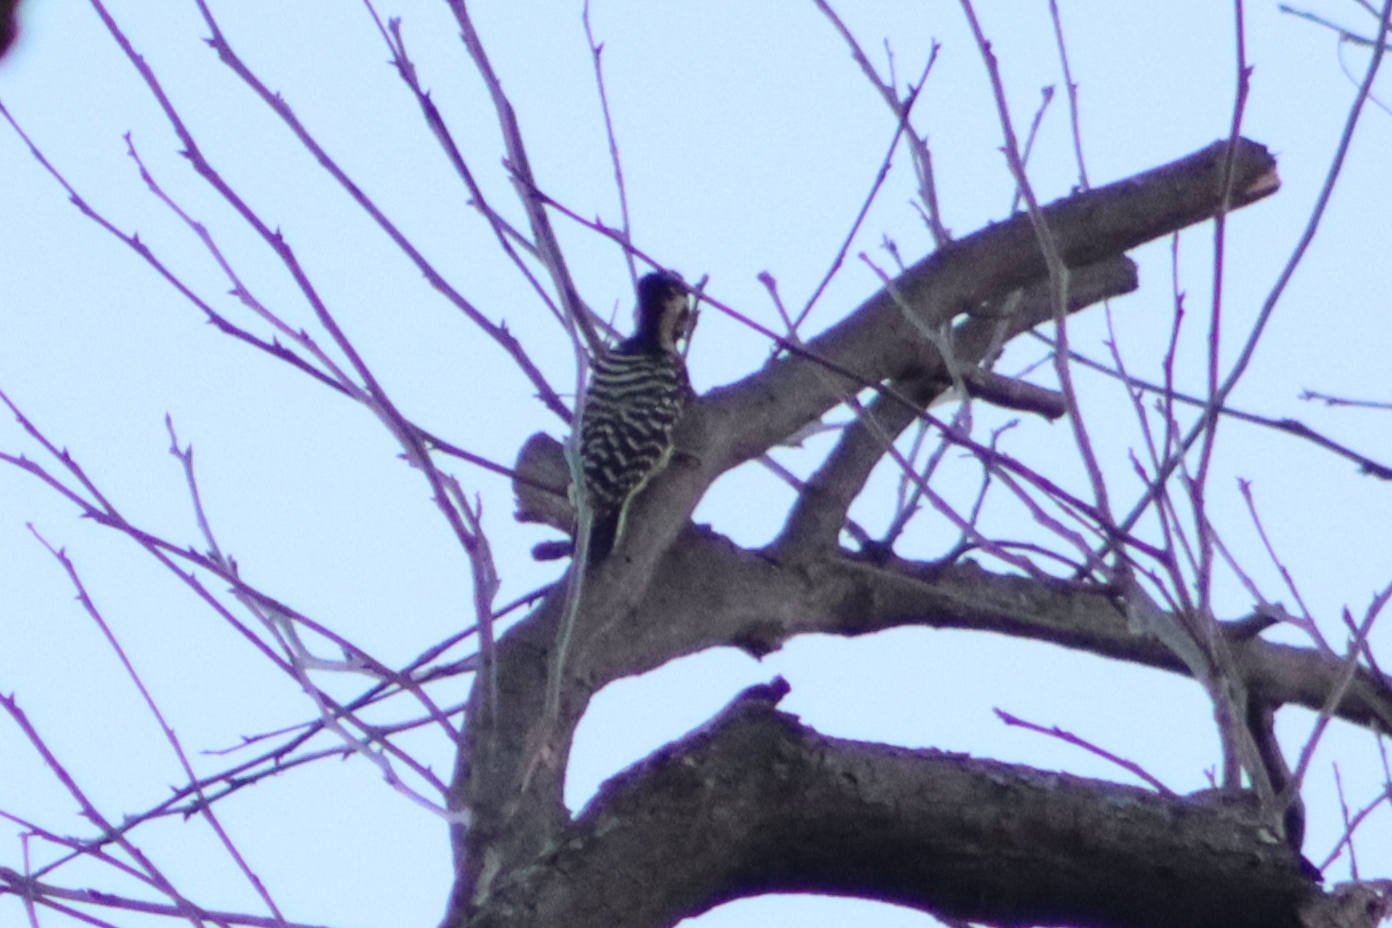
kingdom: Animalia
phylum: Chordata
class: Aves
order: Piciformes
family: Picidae
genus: Dryobates
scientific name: Dryobates scalaris
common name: Ladder-backed woodpecker
